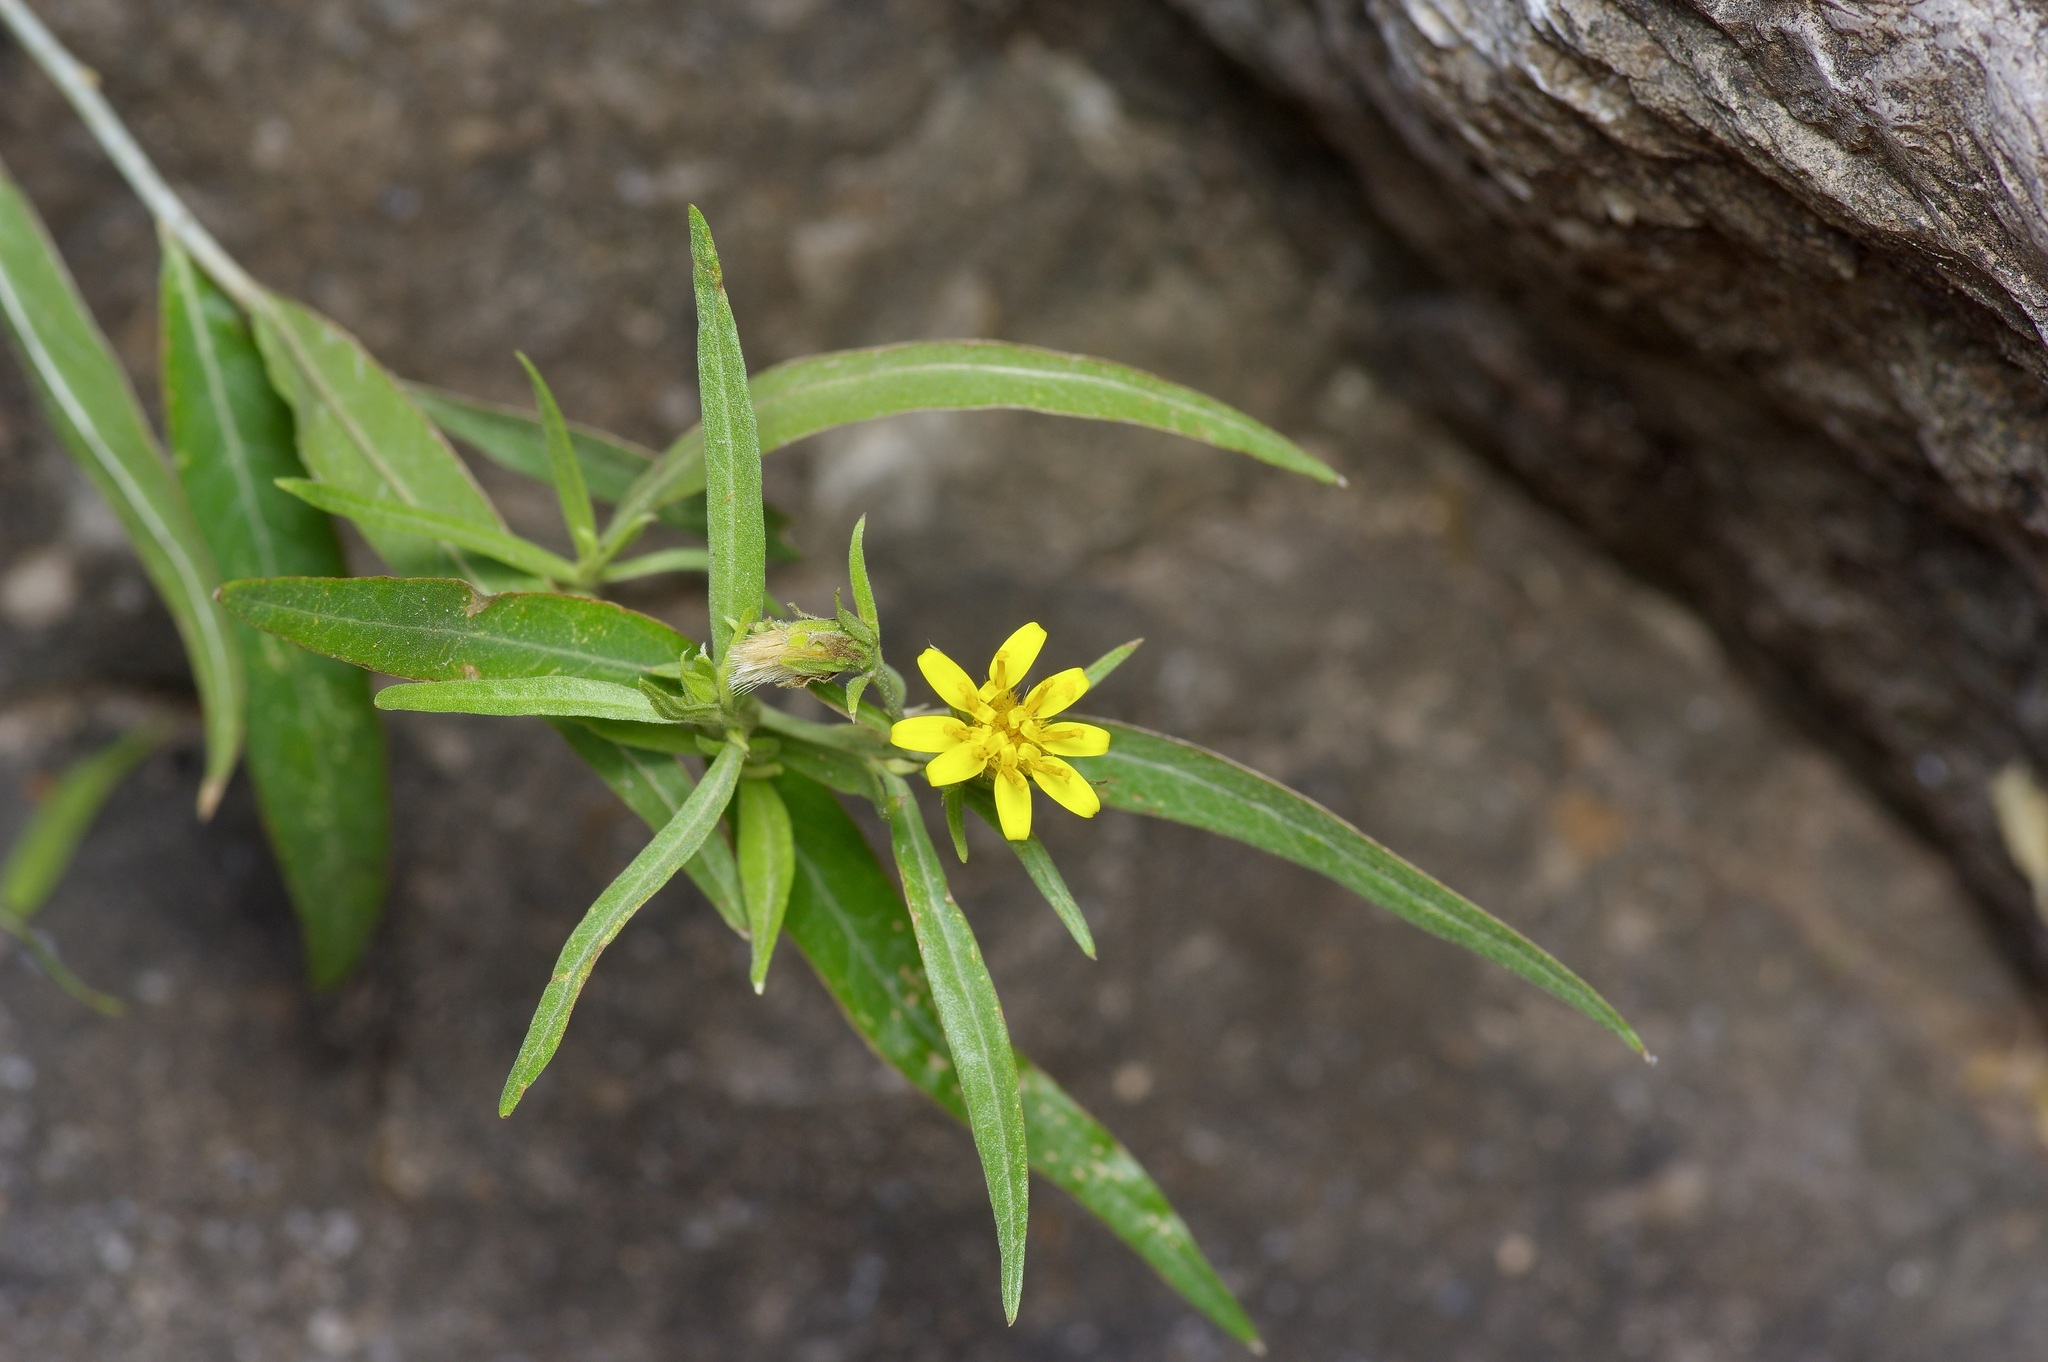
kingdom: Plantae
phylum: Tracheophyta
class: Magnoliopsida
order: Asterales
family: Asteraceae
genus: Trixis
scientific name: Trixis californica
